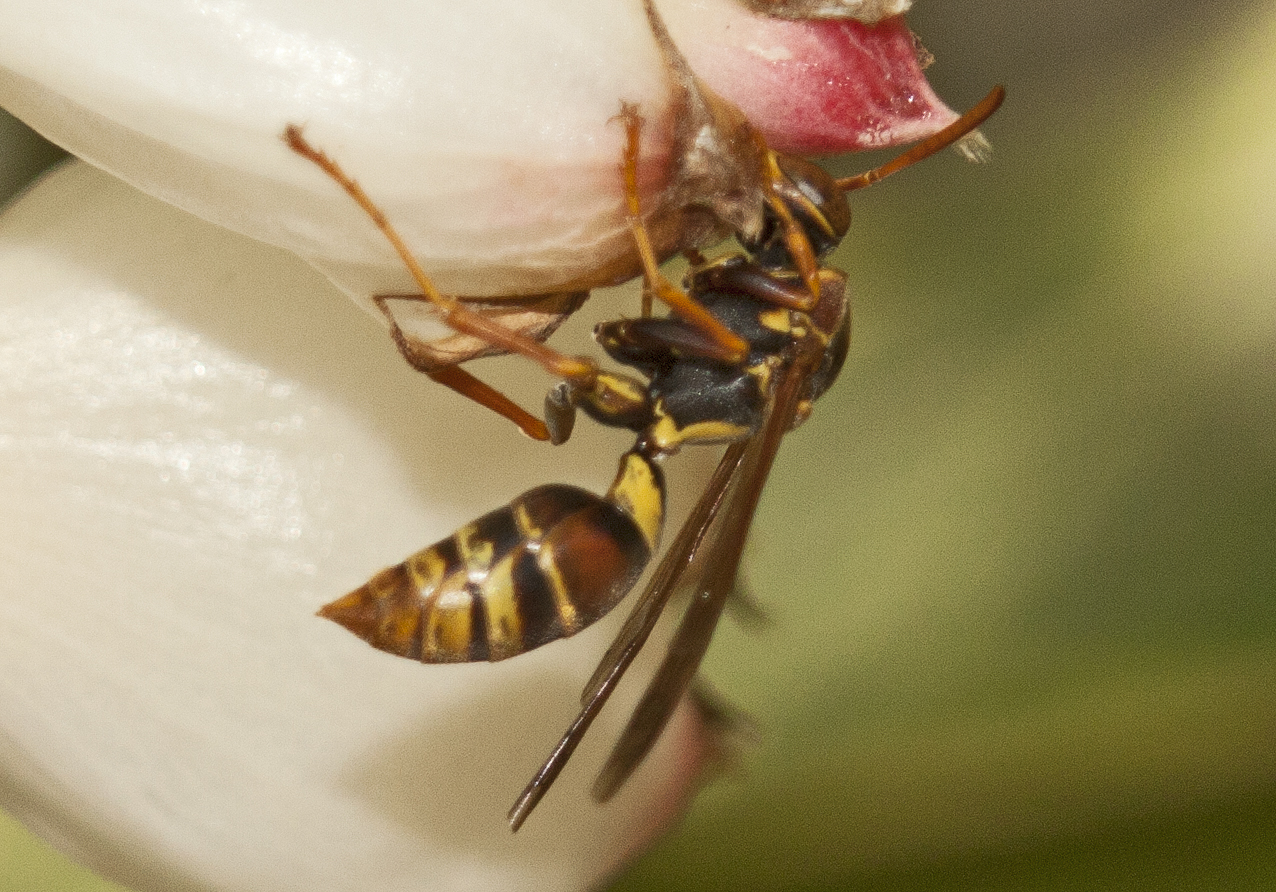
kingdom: Animalia
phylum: Arthropoda
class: Insecta
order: Hymenoptera
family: Eumenidae
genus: Polistes
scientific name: Polistes humilis
